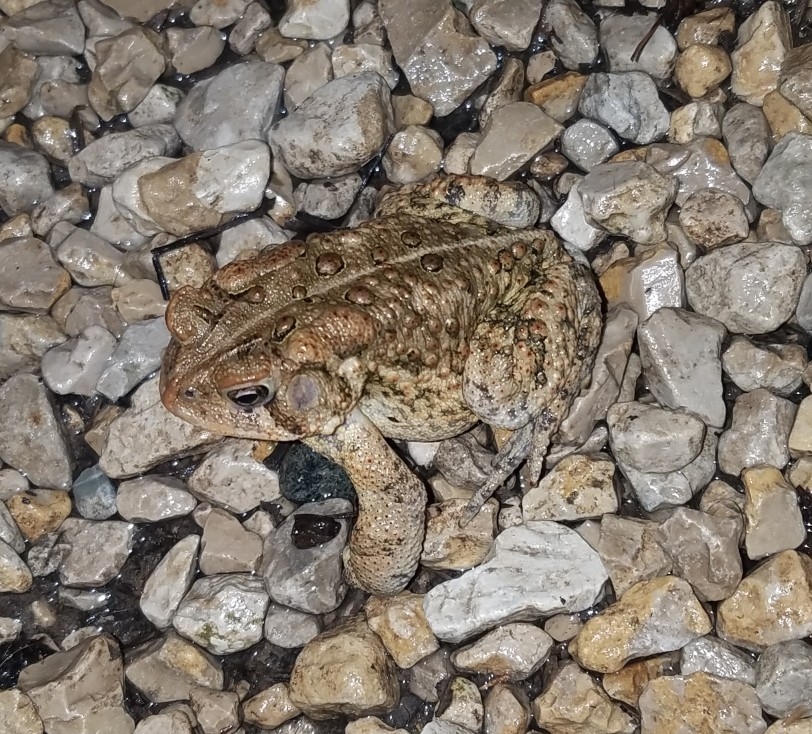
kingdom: Animalia
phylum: Chordata
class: Amphibia
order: Anura
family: Bufonidae
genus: Anaxyrus
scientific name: Anaxyrus americanus
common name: American toad
